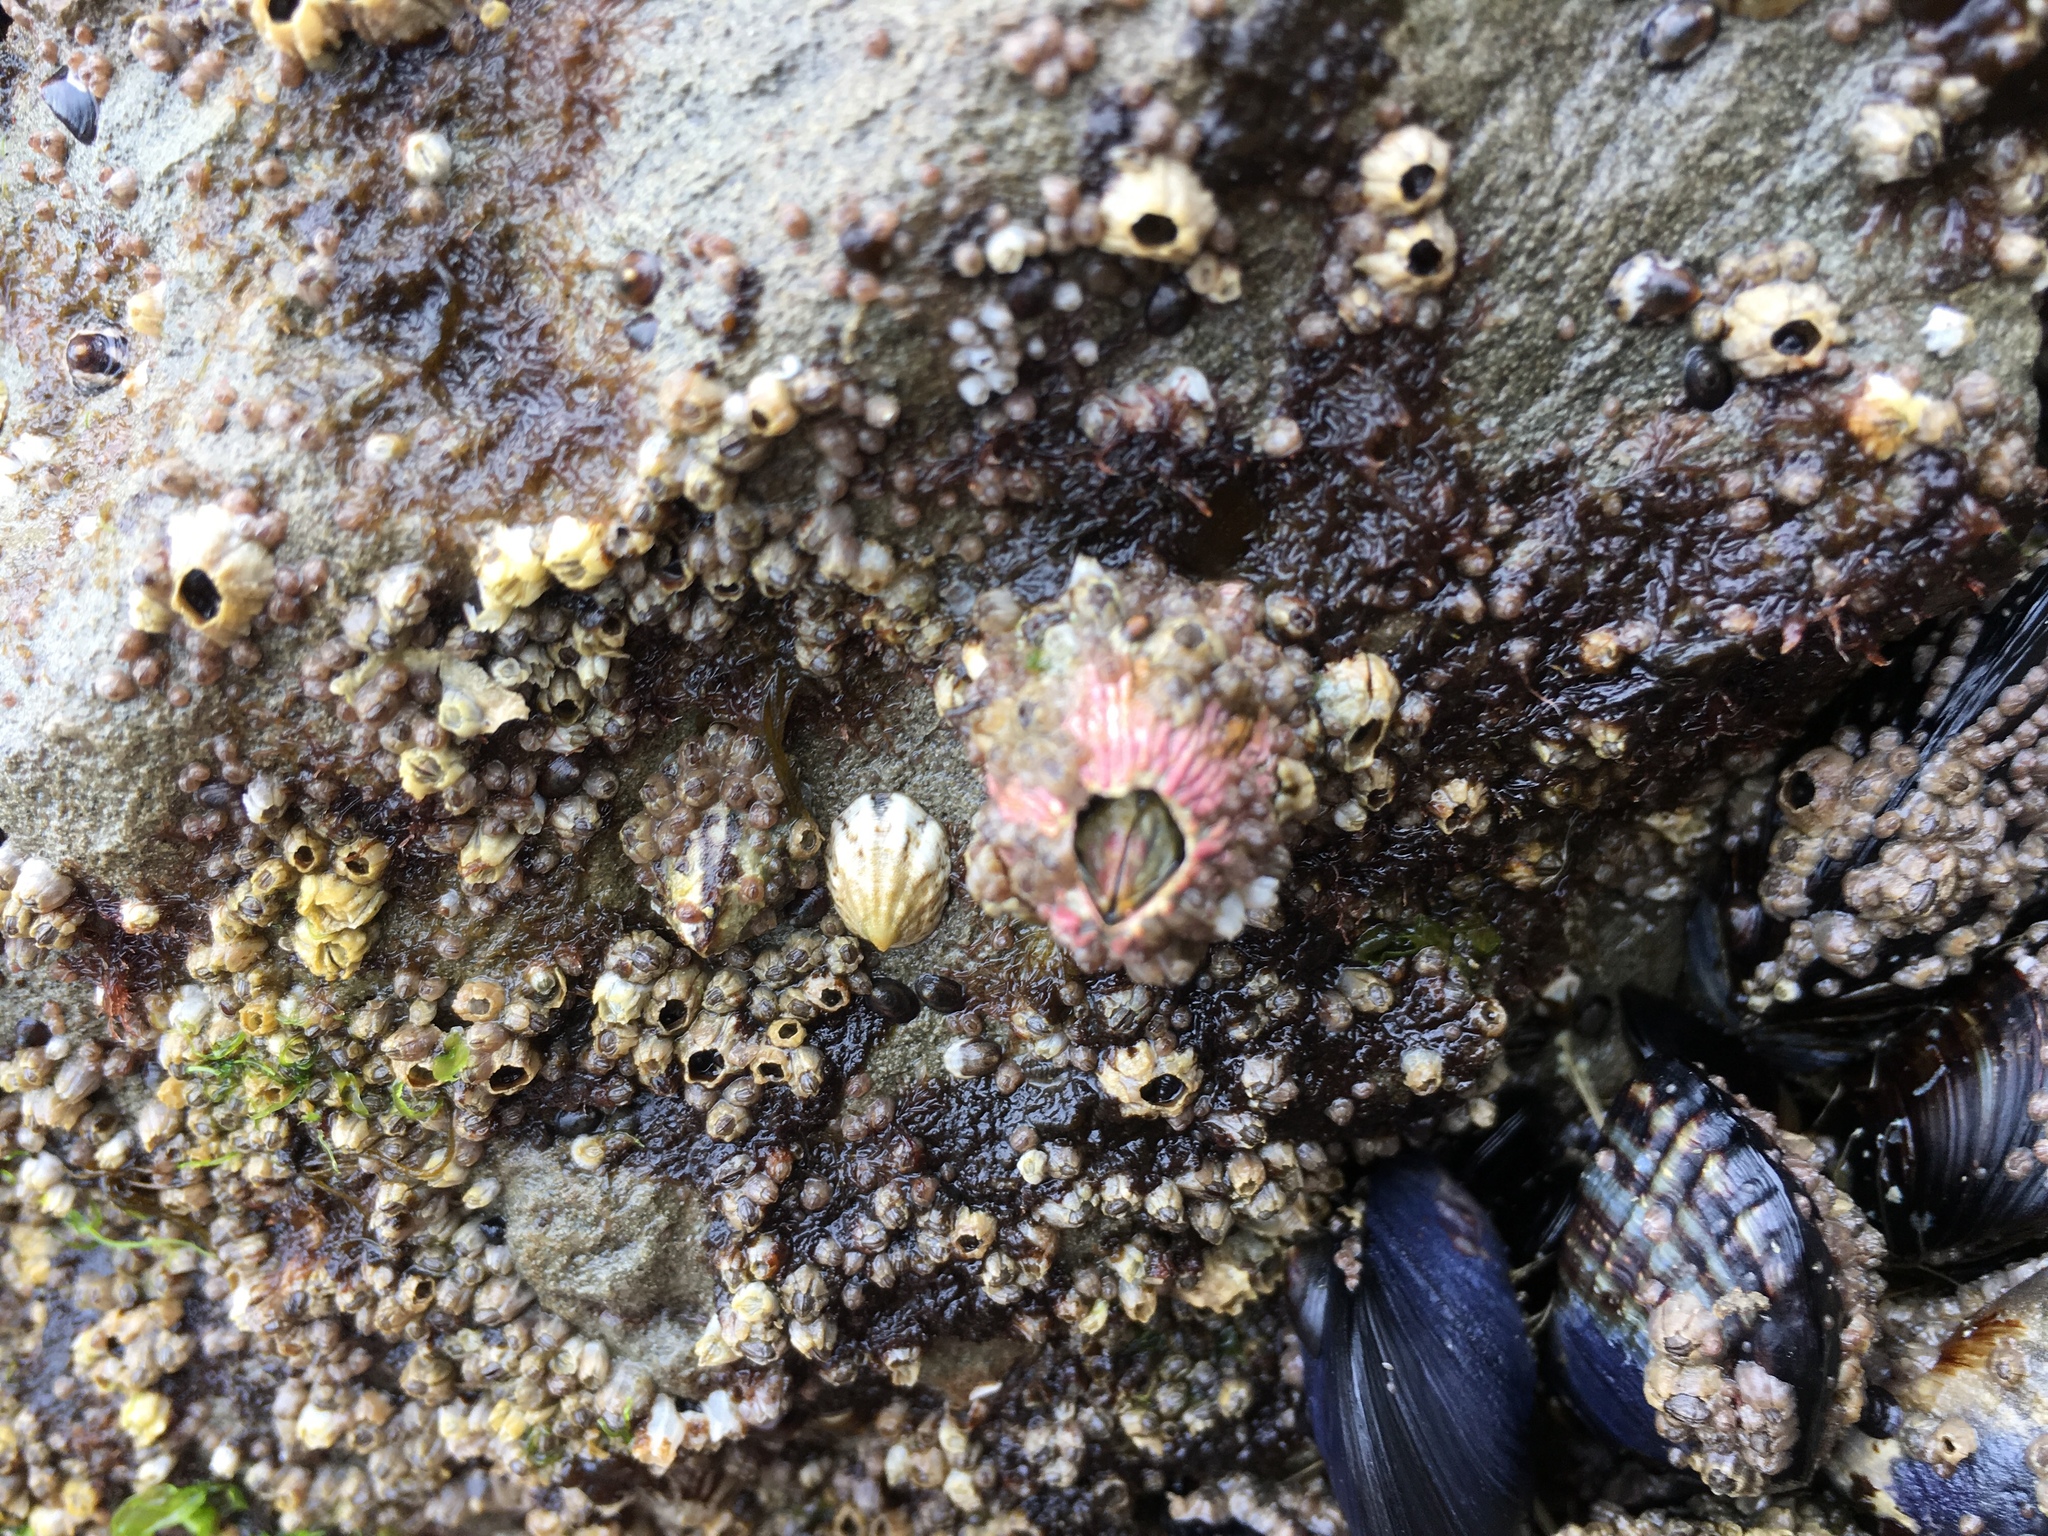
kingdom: Animalia
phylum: Arthropoda
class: Maxillopoda
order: Sessilia
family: Tetraclitidae
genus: Tetraclita
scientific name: Tetraclita rubescens
